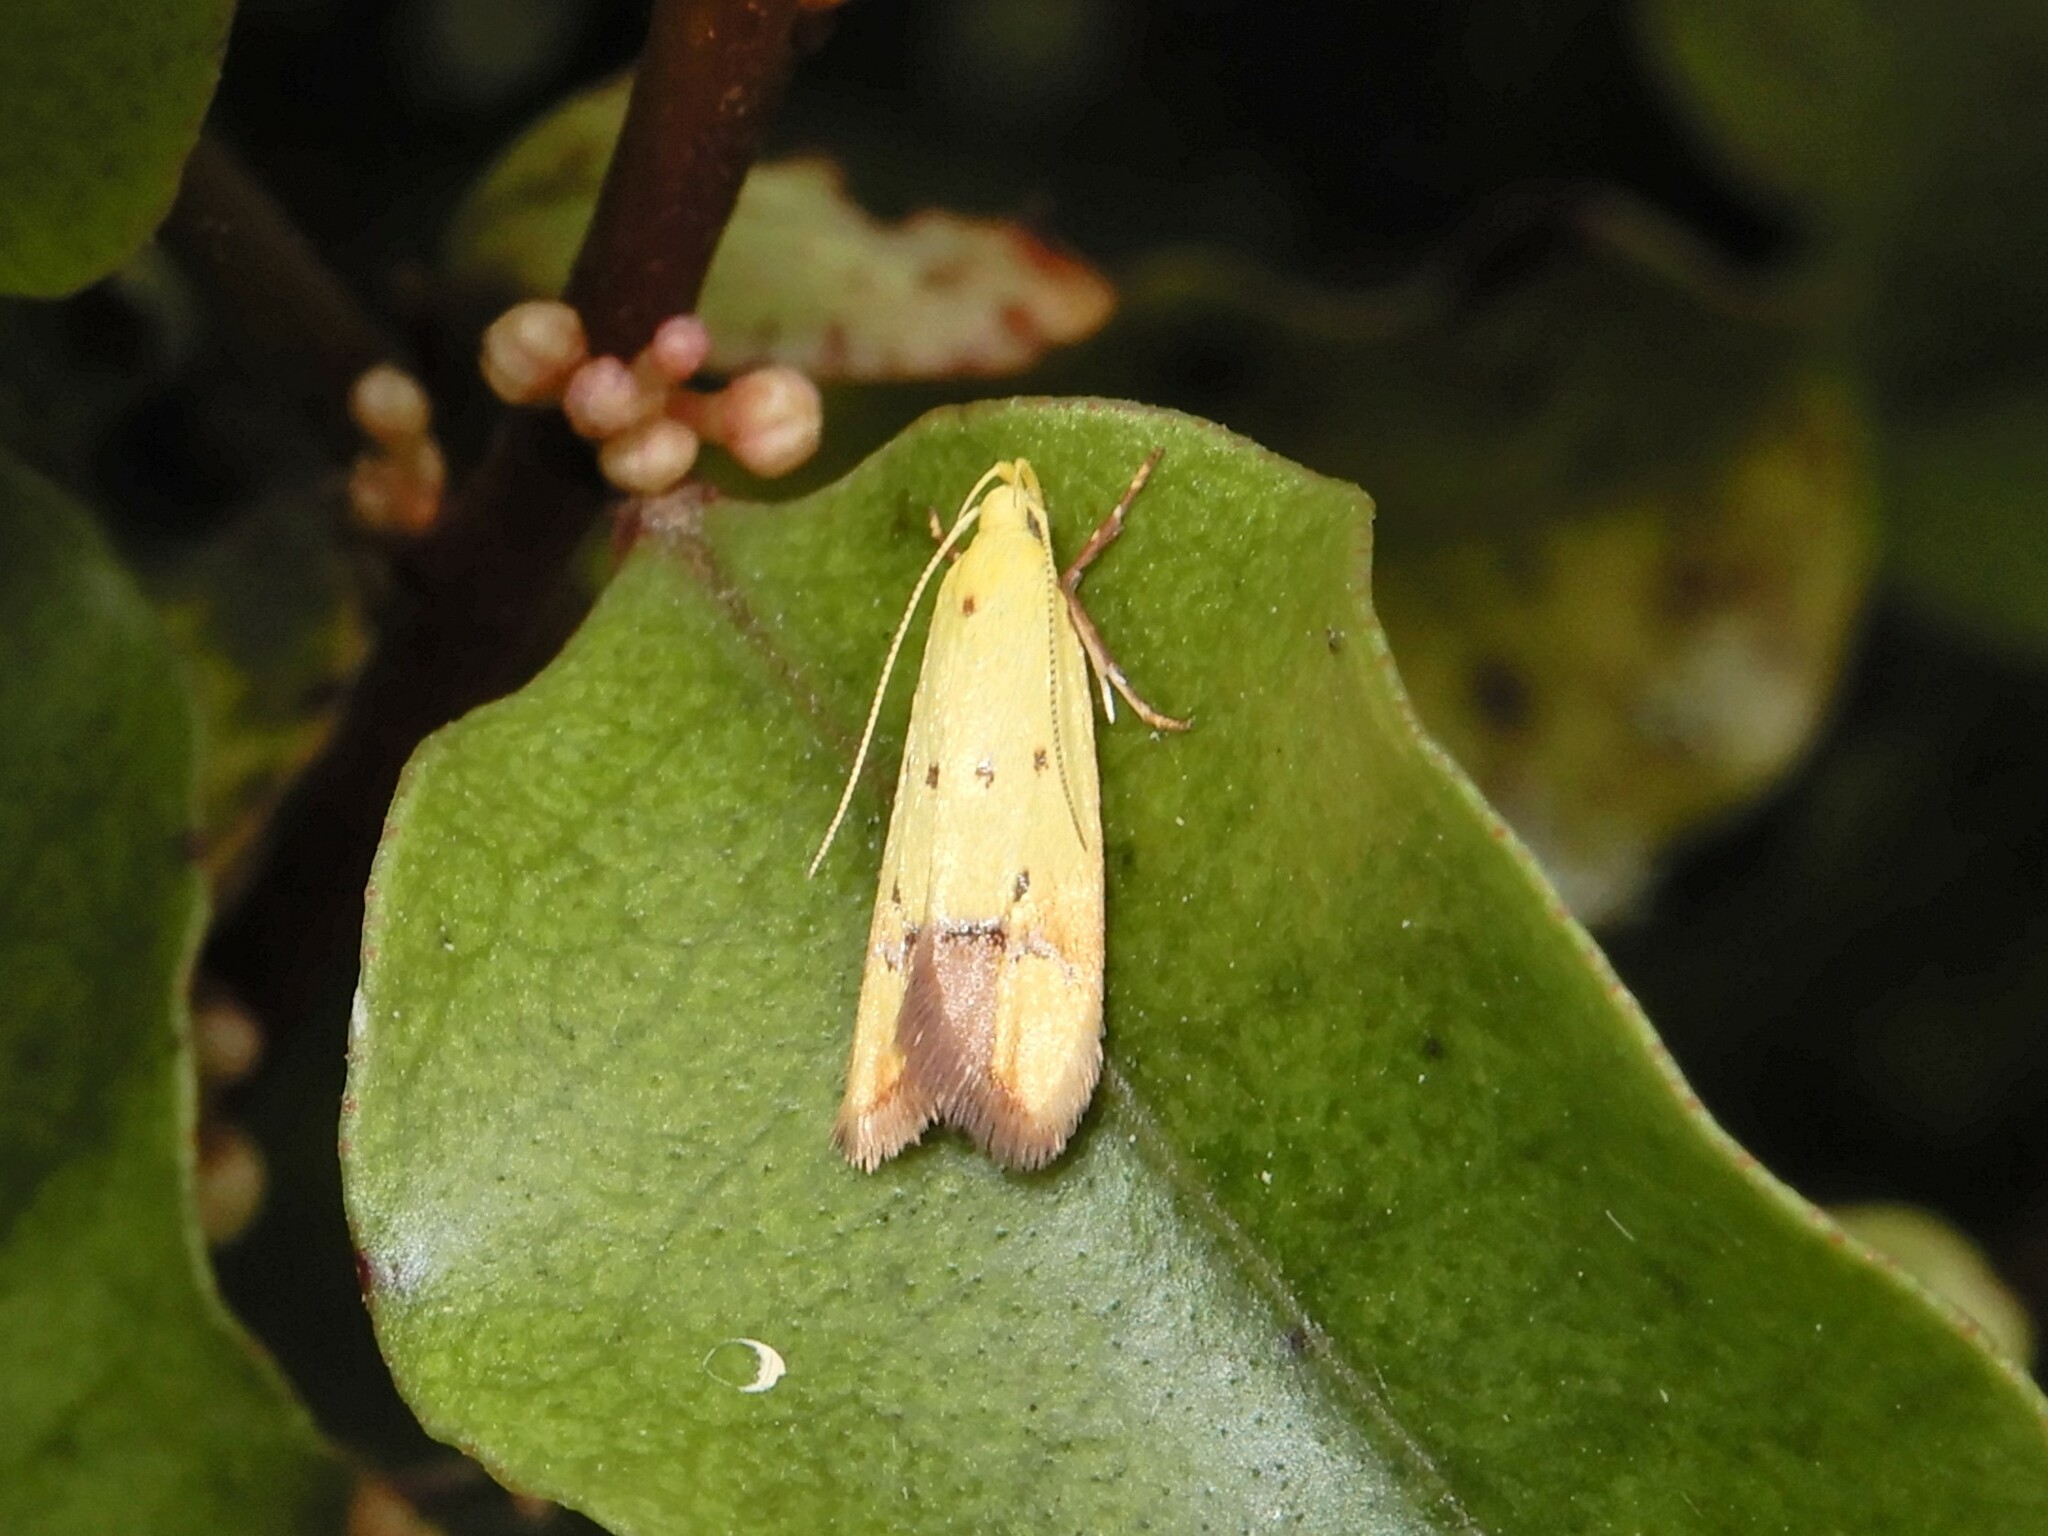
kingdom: Animalia
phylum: Arthropoda
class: Insecta
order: Lepidoptera
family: Oecophoridae
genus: Gymnobathra
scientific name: Gymnobathra flavidella
